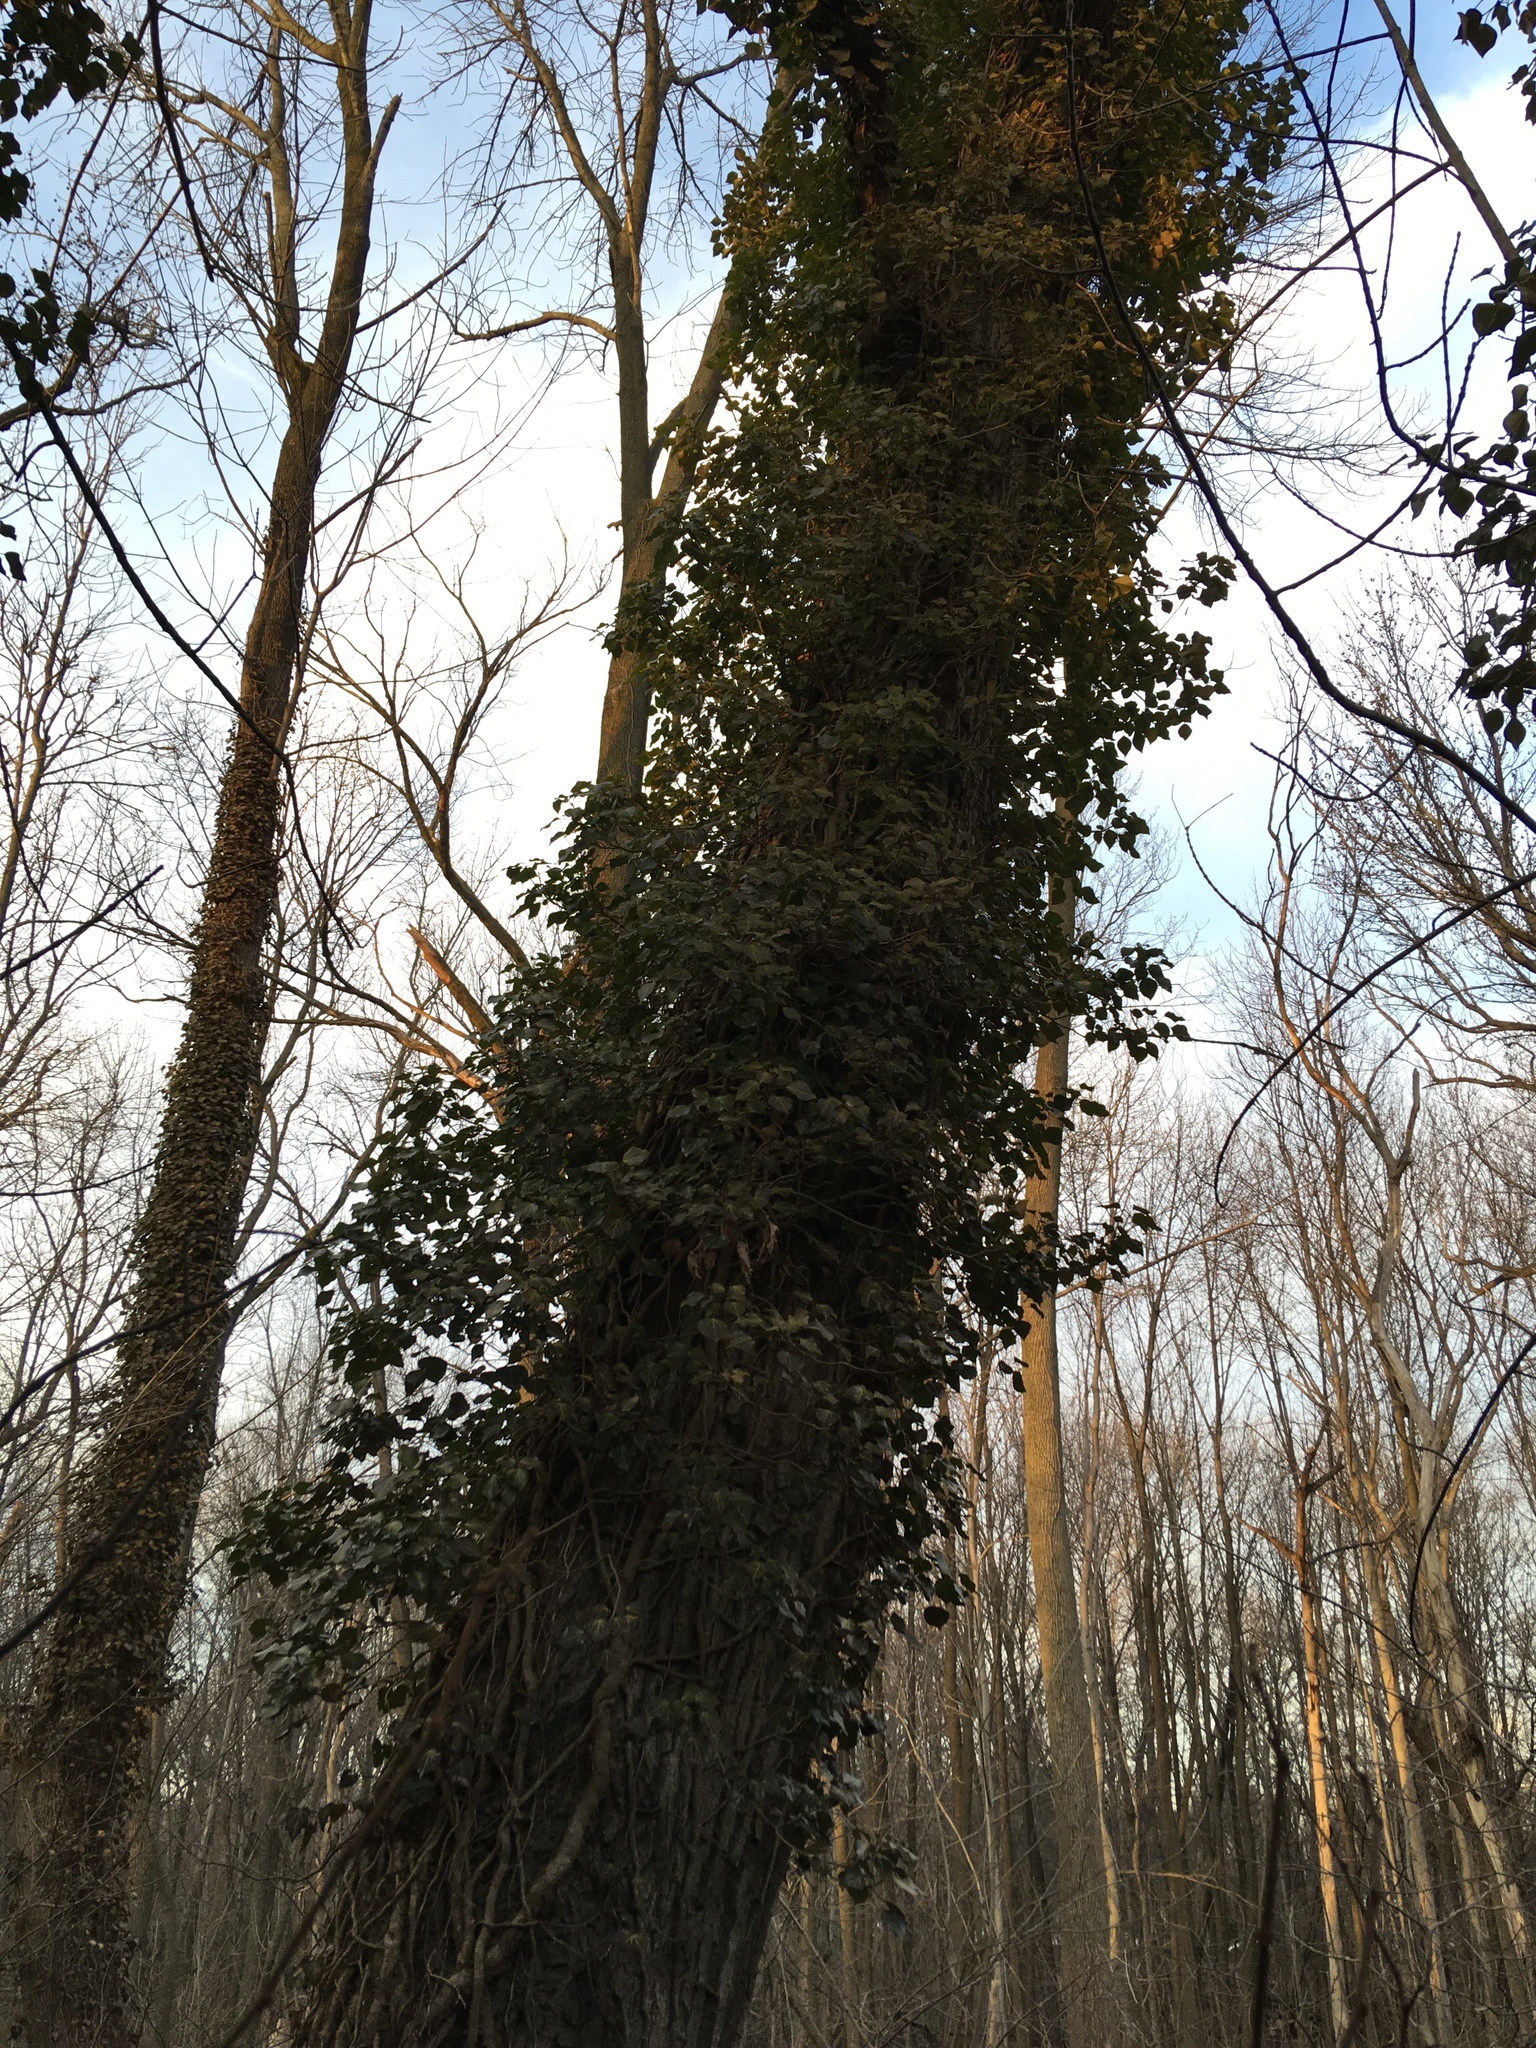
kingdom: Plantae
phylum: Tracheophyta
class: Magnoliopsida
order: Apiales
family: Araliaceae
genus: Hedera
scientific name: Hedera helix
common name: Ivy
